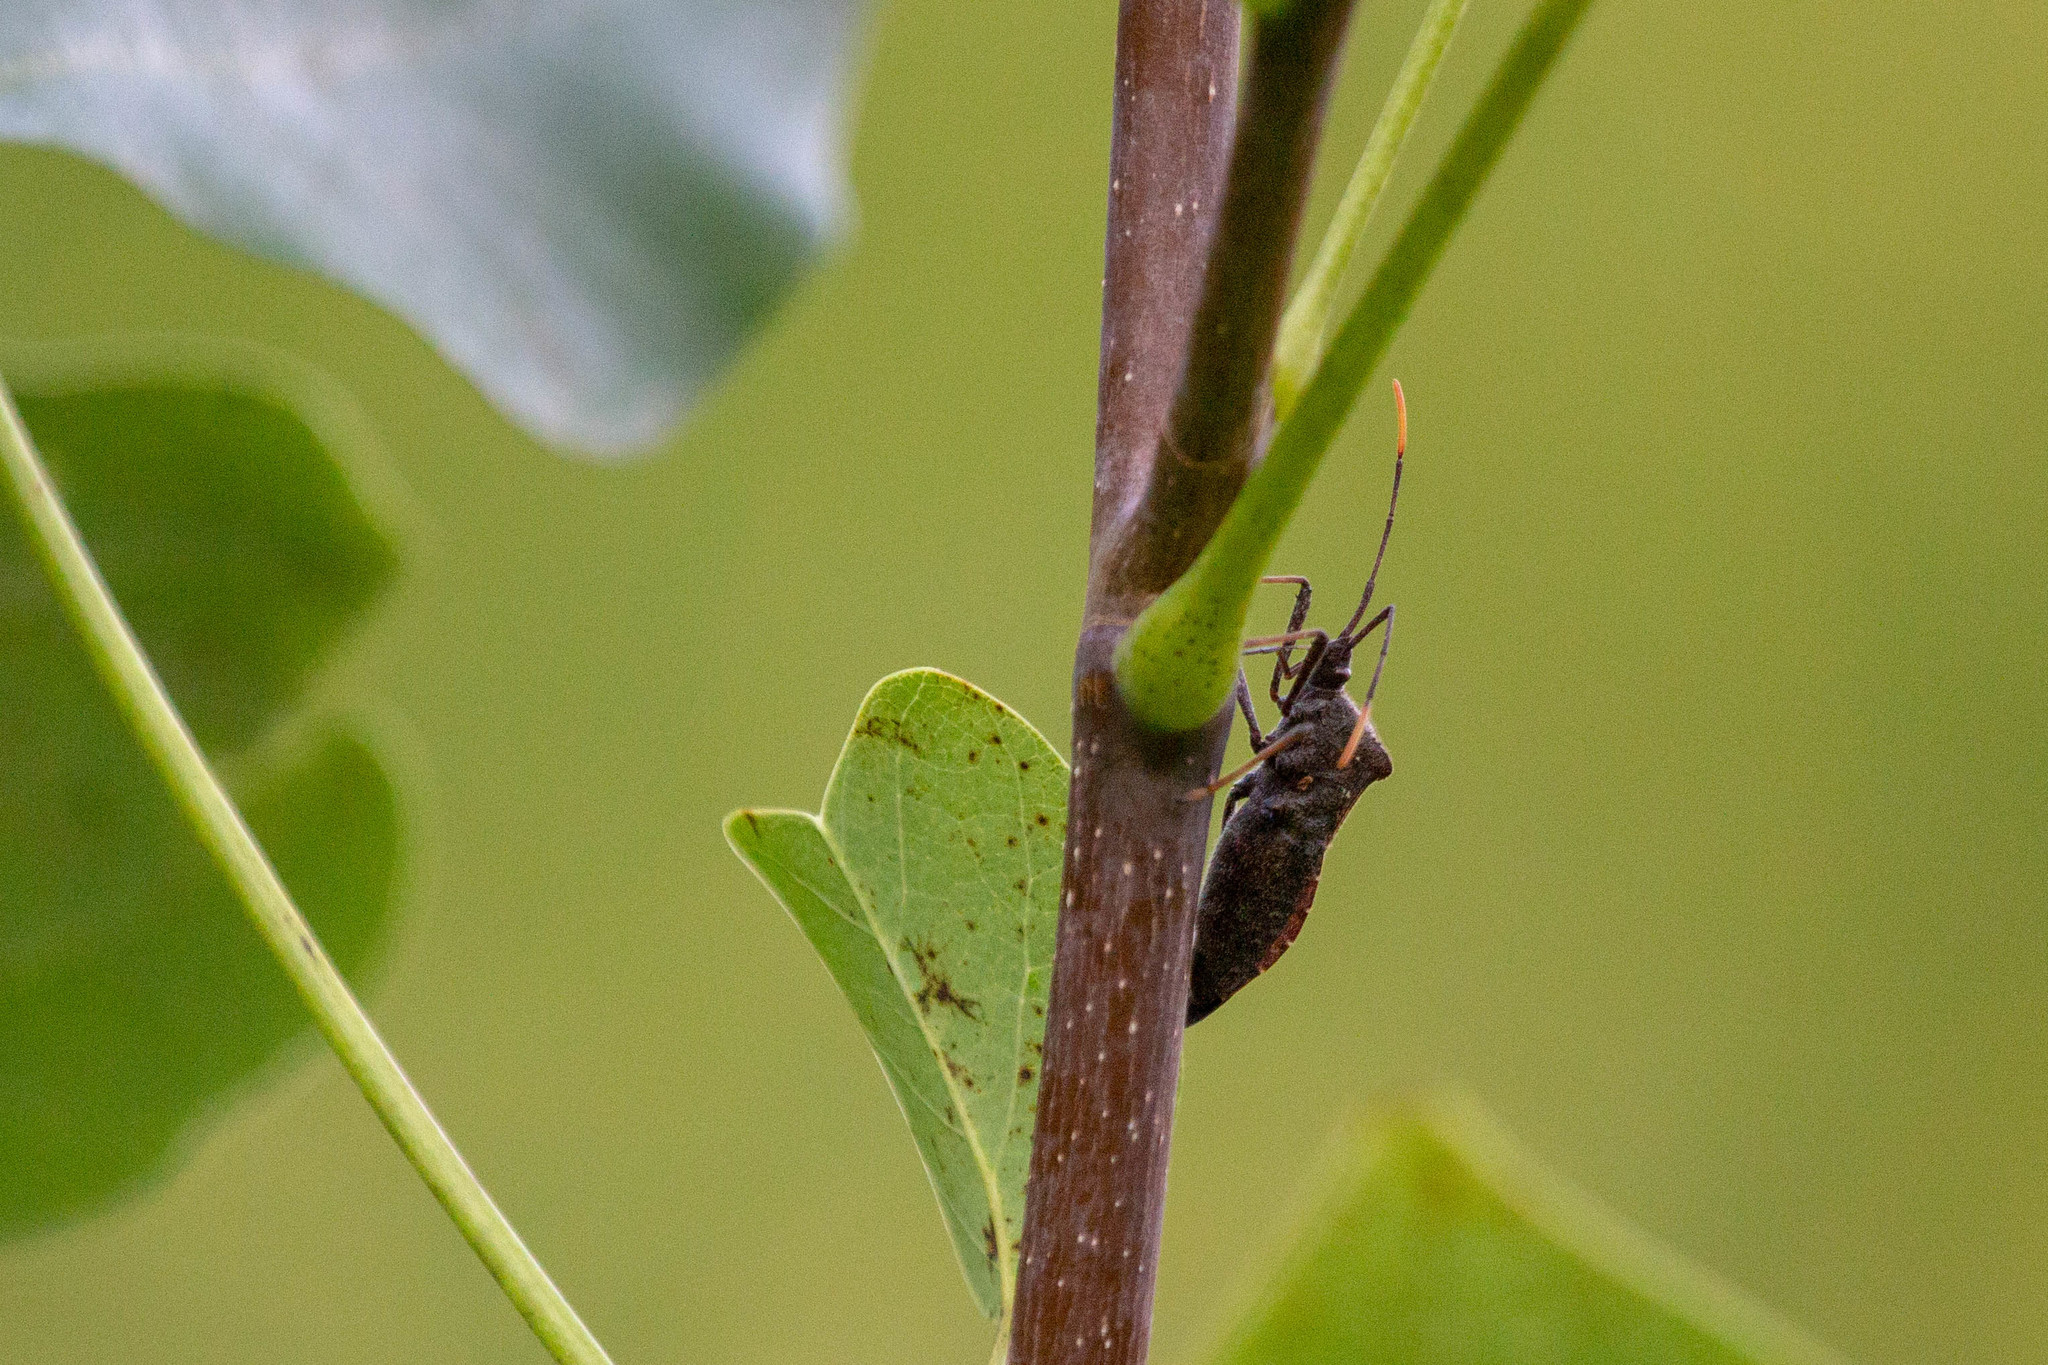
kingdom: Animalia
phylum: Arthropoda
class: Insecta
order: Hemiptera
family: Coreidae
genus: Acanthocephala
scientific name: Acanthocephala terminalis
